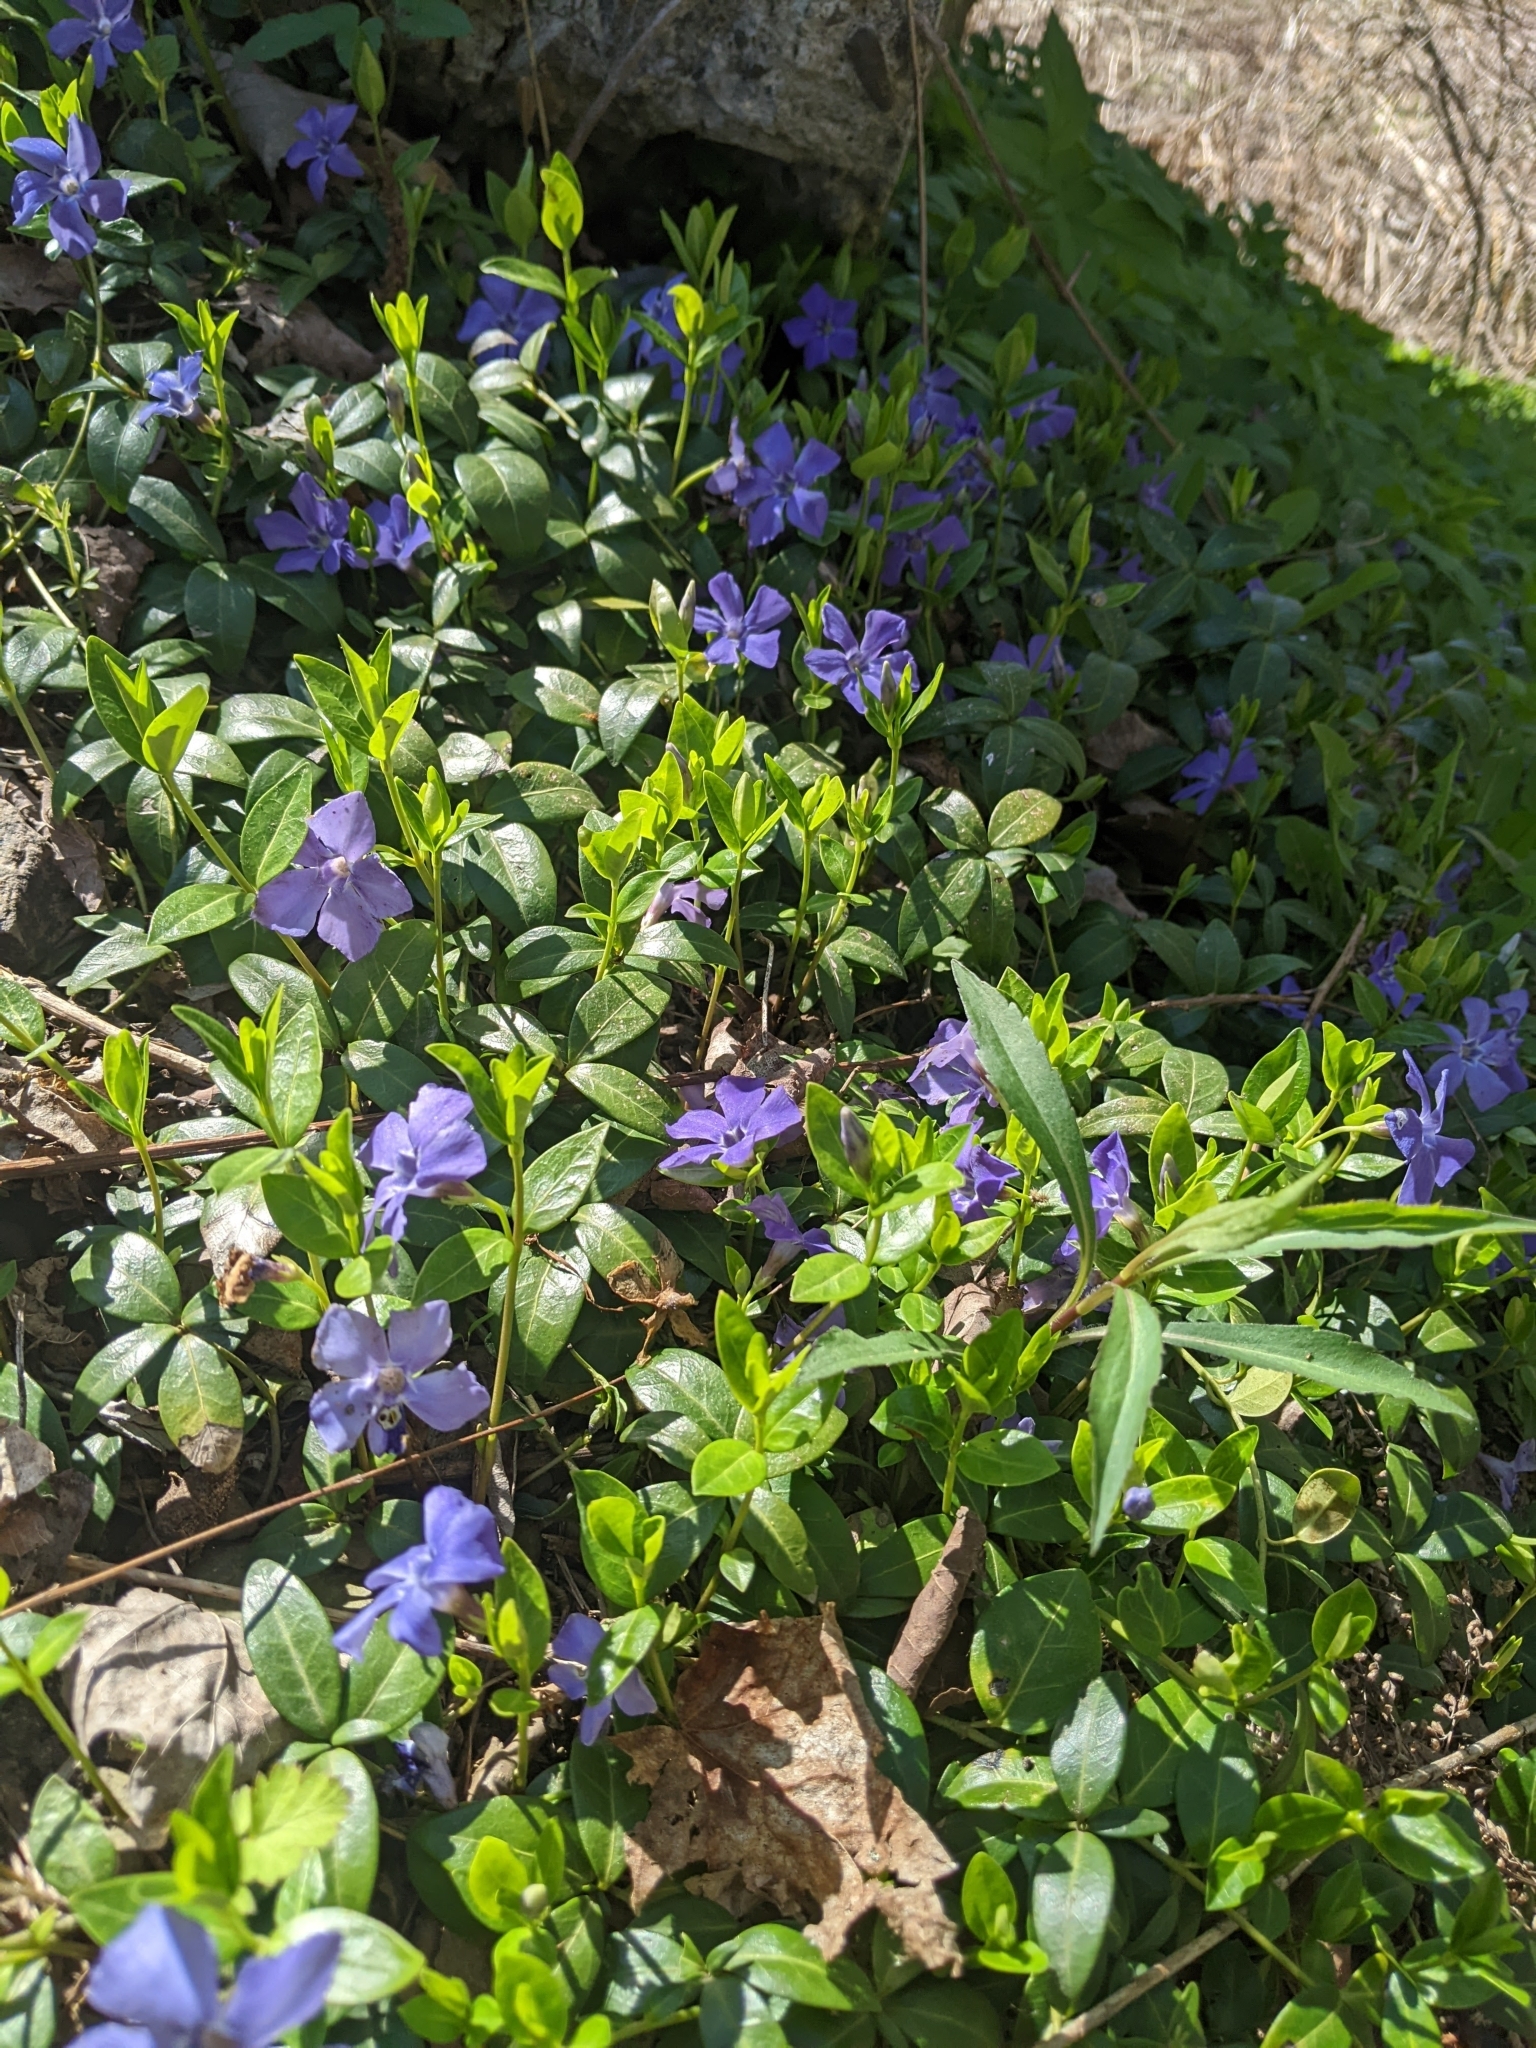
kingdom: Plantae
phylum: Tracheophyta
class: Magnoliopsida
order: Gentianales
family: Apocynaceae
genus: Vinca
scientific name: Vinca minor
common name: Lesser periwinkle
